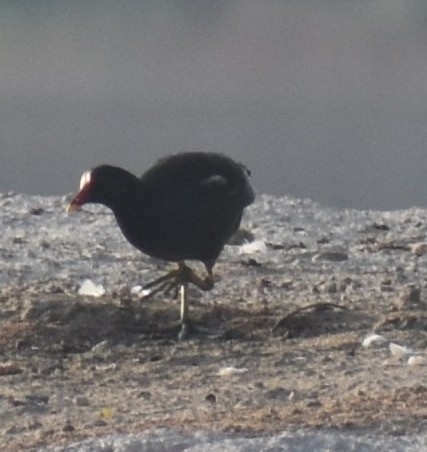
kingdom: Animalia
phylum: Chordata
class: Aves
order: Gruiformes
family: Rallidae
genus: Gallinula
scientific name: Gallinula chloropus
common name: Common moorhen
